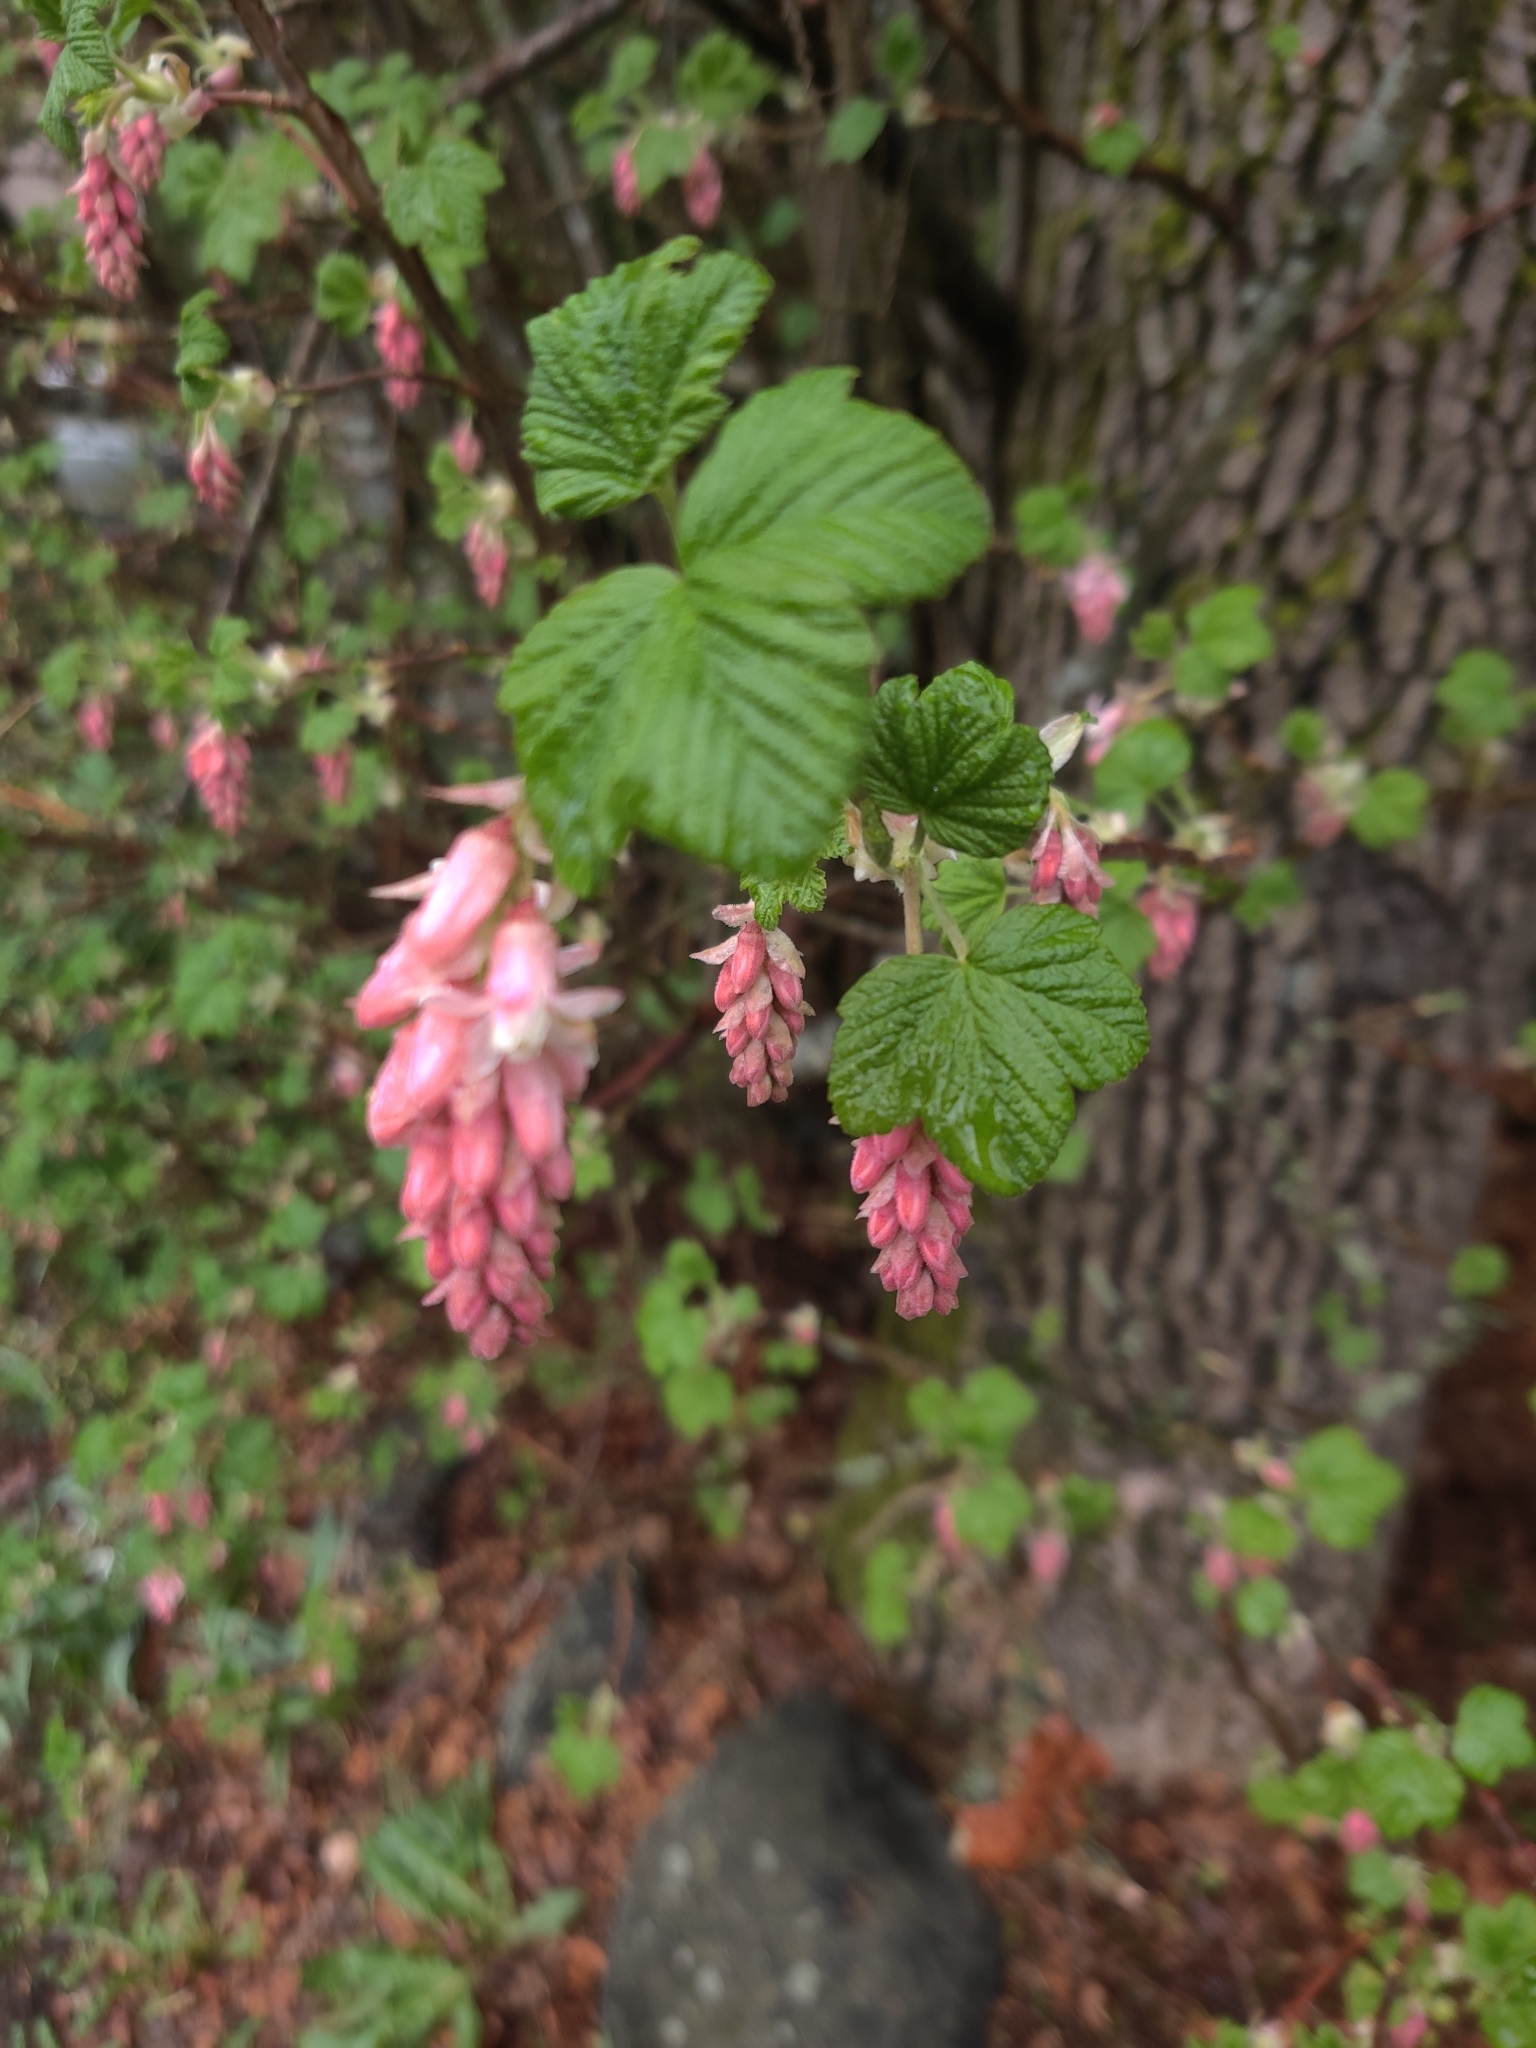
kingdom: Plantae
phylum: Tracheophyta
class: Magnoliopsida
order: Saxifragales
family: Grossulariaceae
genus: Ribes
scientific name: Ribes sanguineum
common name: Flowering currant
